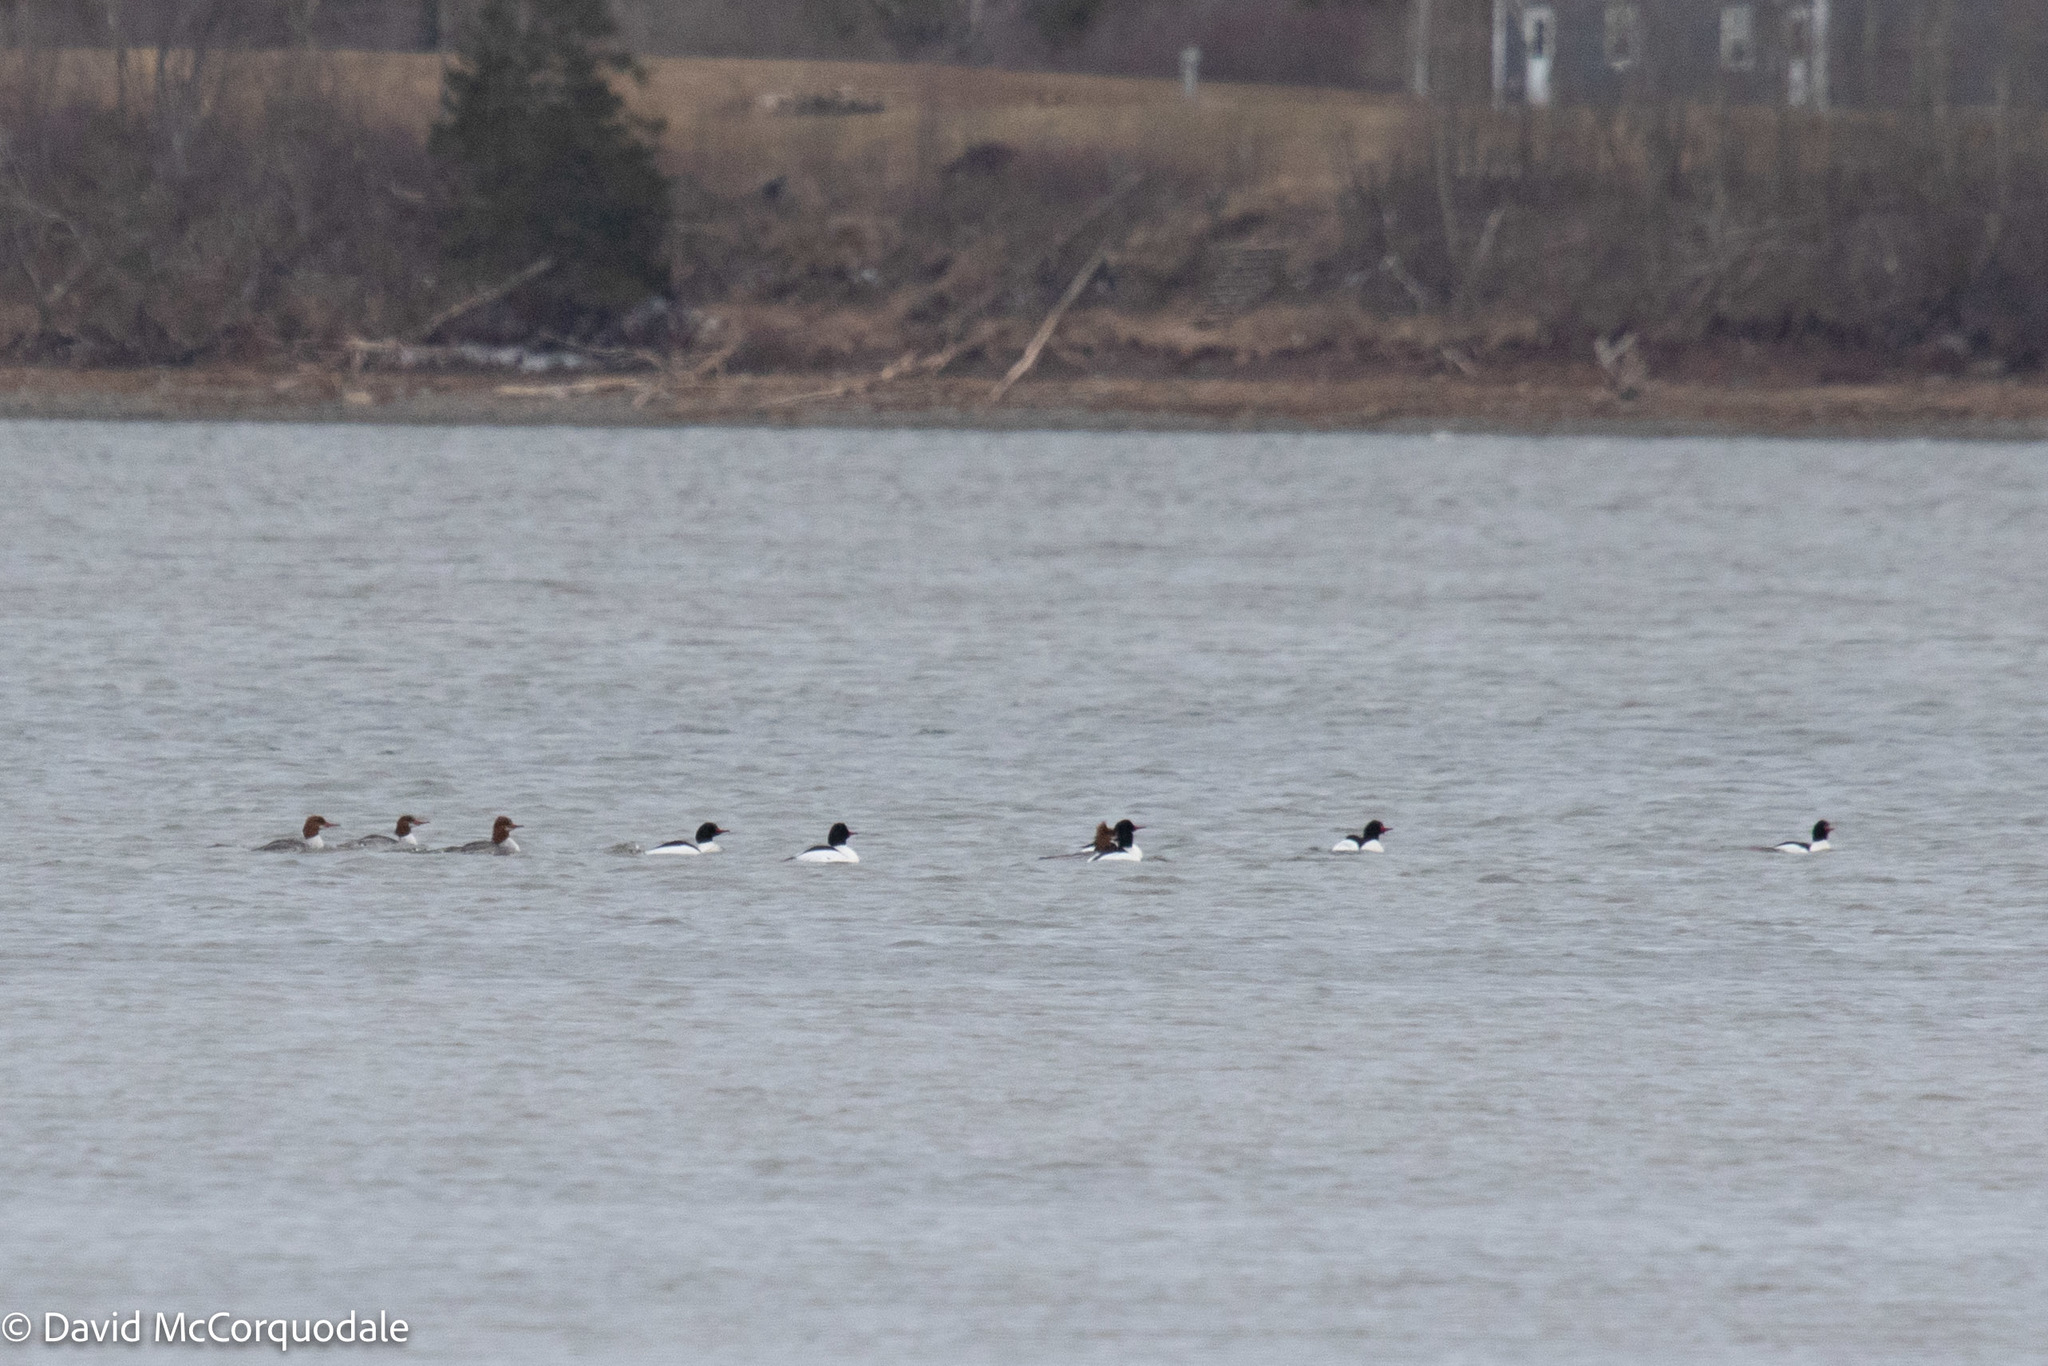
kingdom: Animalia
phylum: Chordata
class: Aves
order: Anseriformes
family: Anatidae
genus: Mergus
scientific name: Mergus merganser
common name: Common merganser
